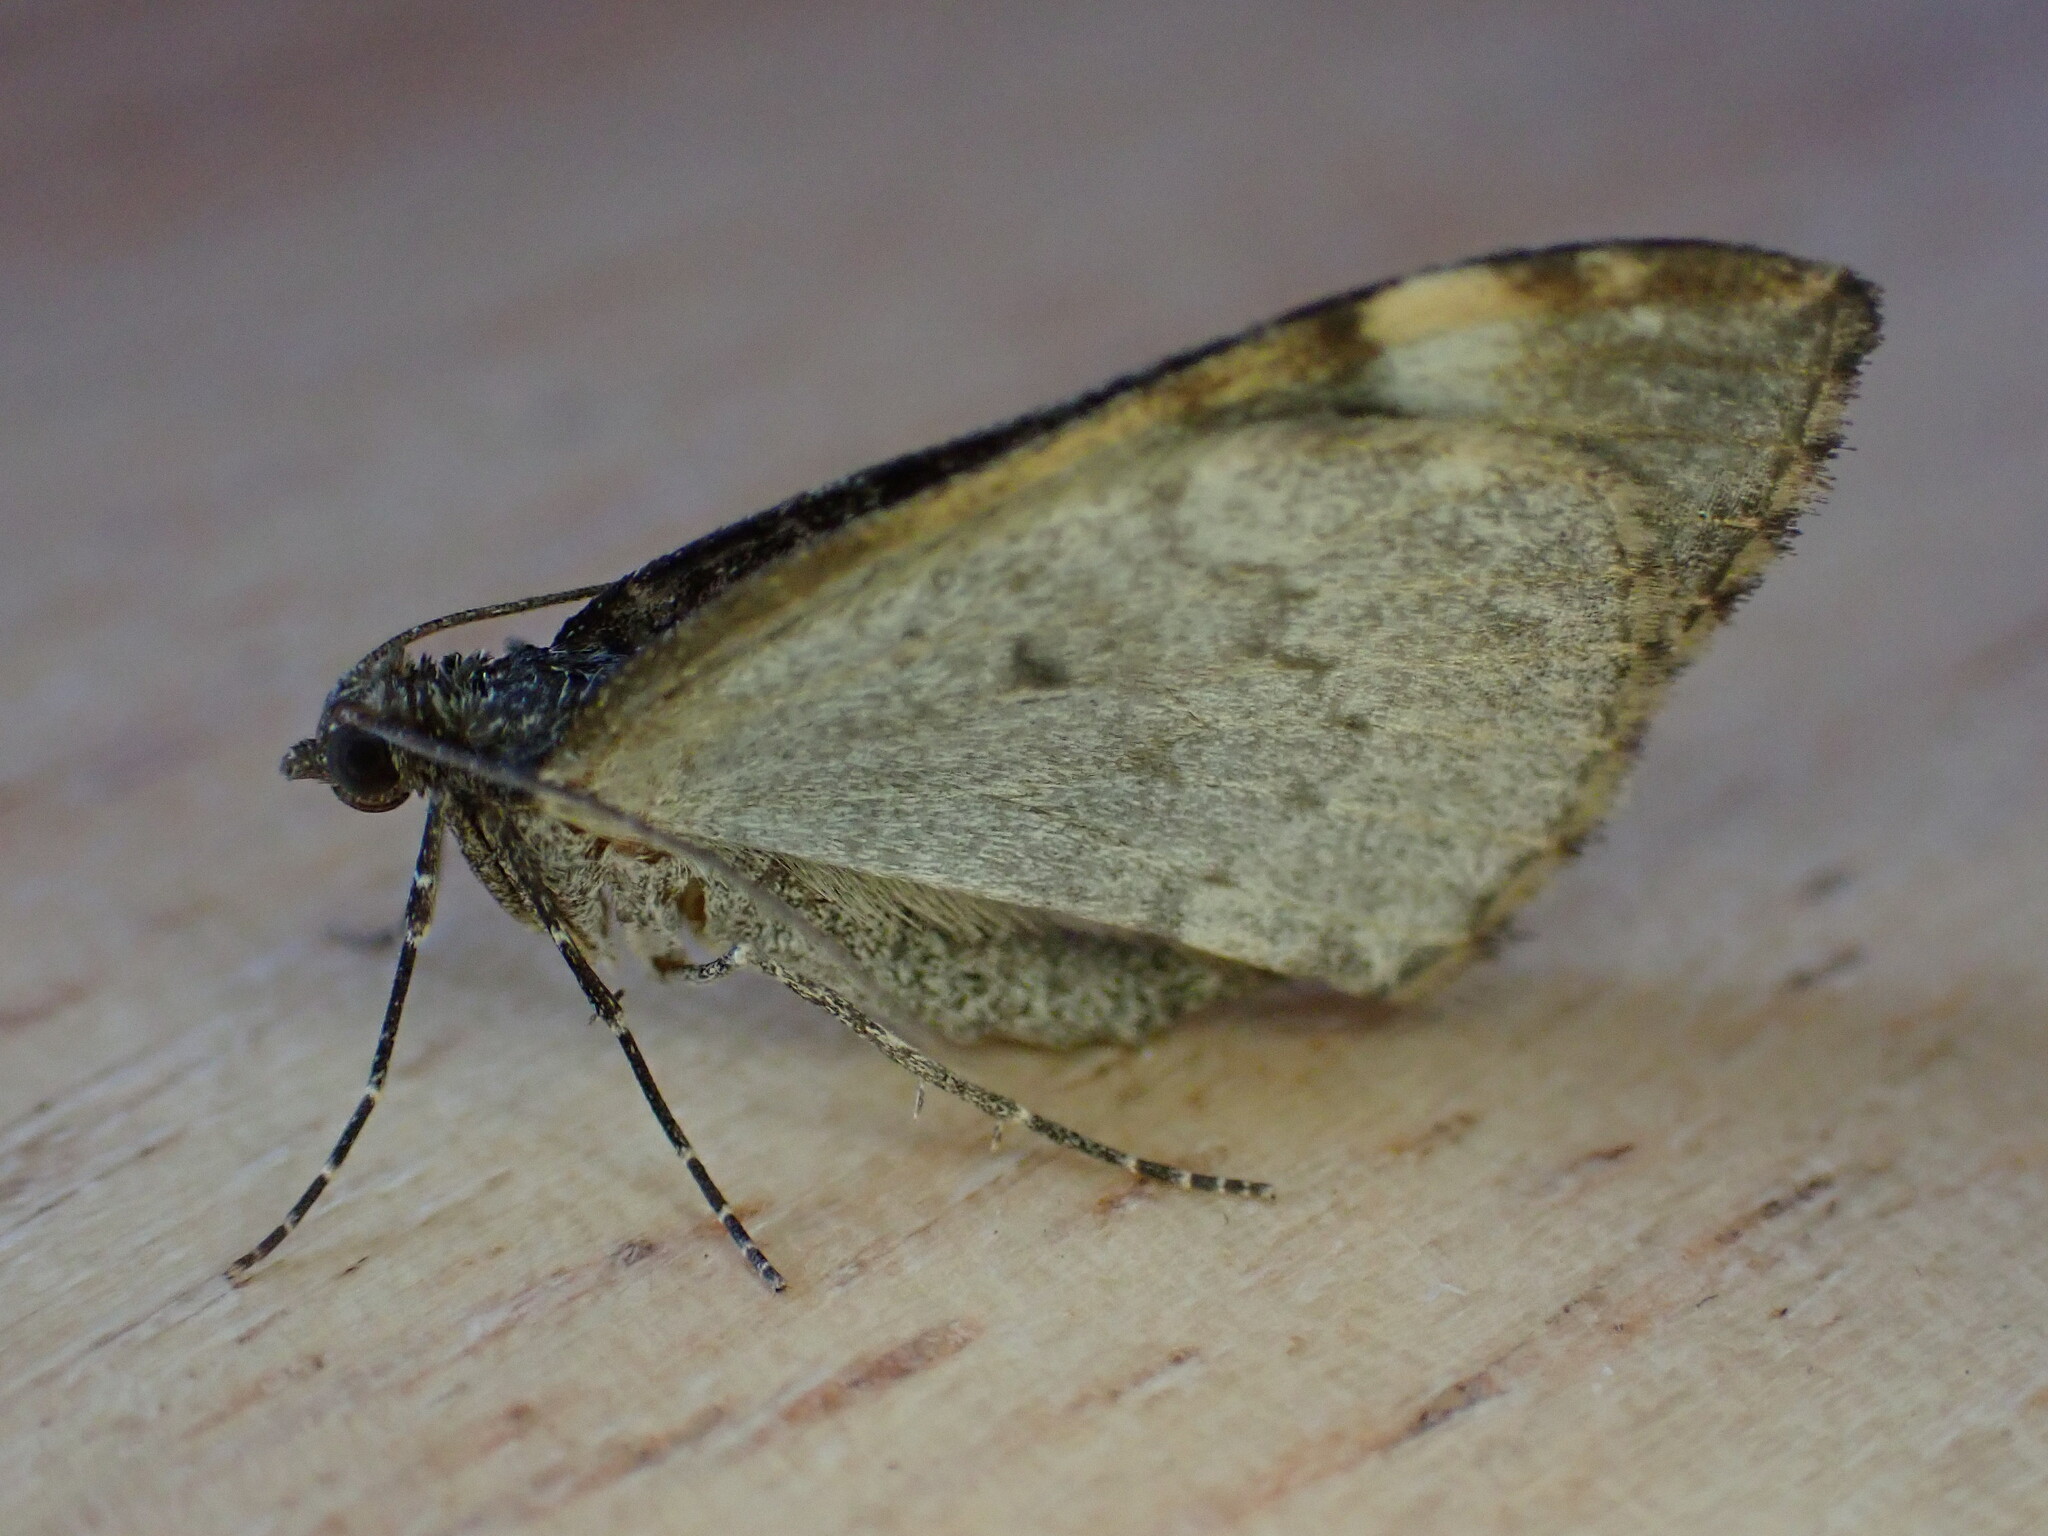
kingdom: Animalia
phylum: Arthropoda
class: Insecta
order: Lepidoptera
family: Geometridae
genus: Dysstroma
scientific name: Dysstroma truncata
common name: Common marbled carpet
